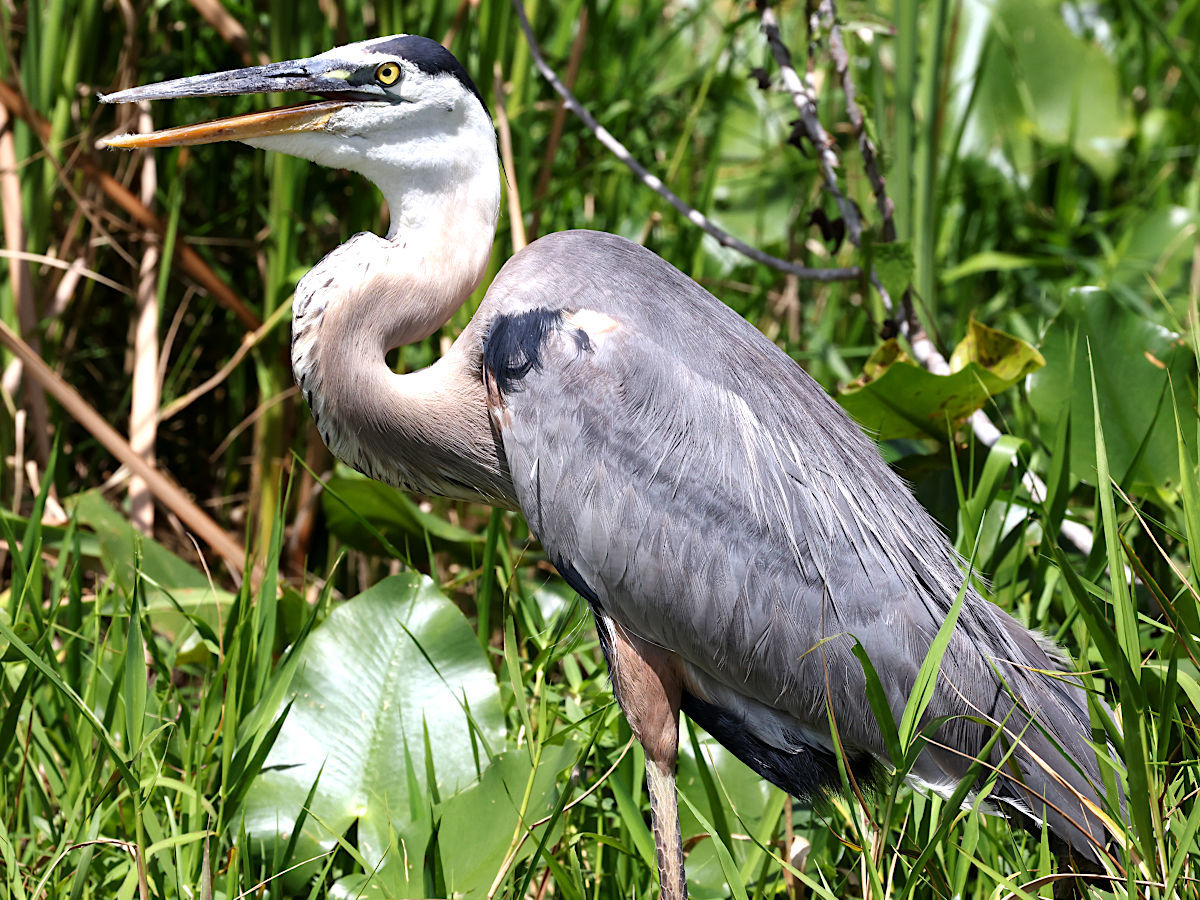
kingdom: Animalia
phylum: Chordata
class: Aves
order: Pelecaniformes
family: Ardeidae
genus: Ardea
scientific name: Ardea herodias
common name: Great blue heron
